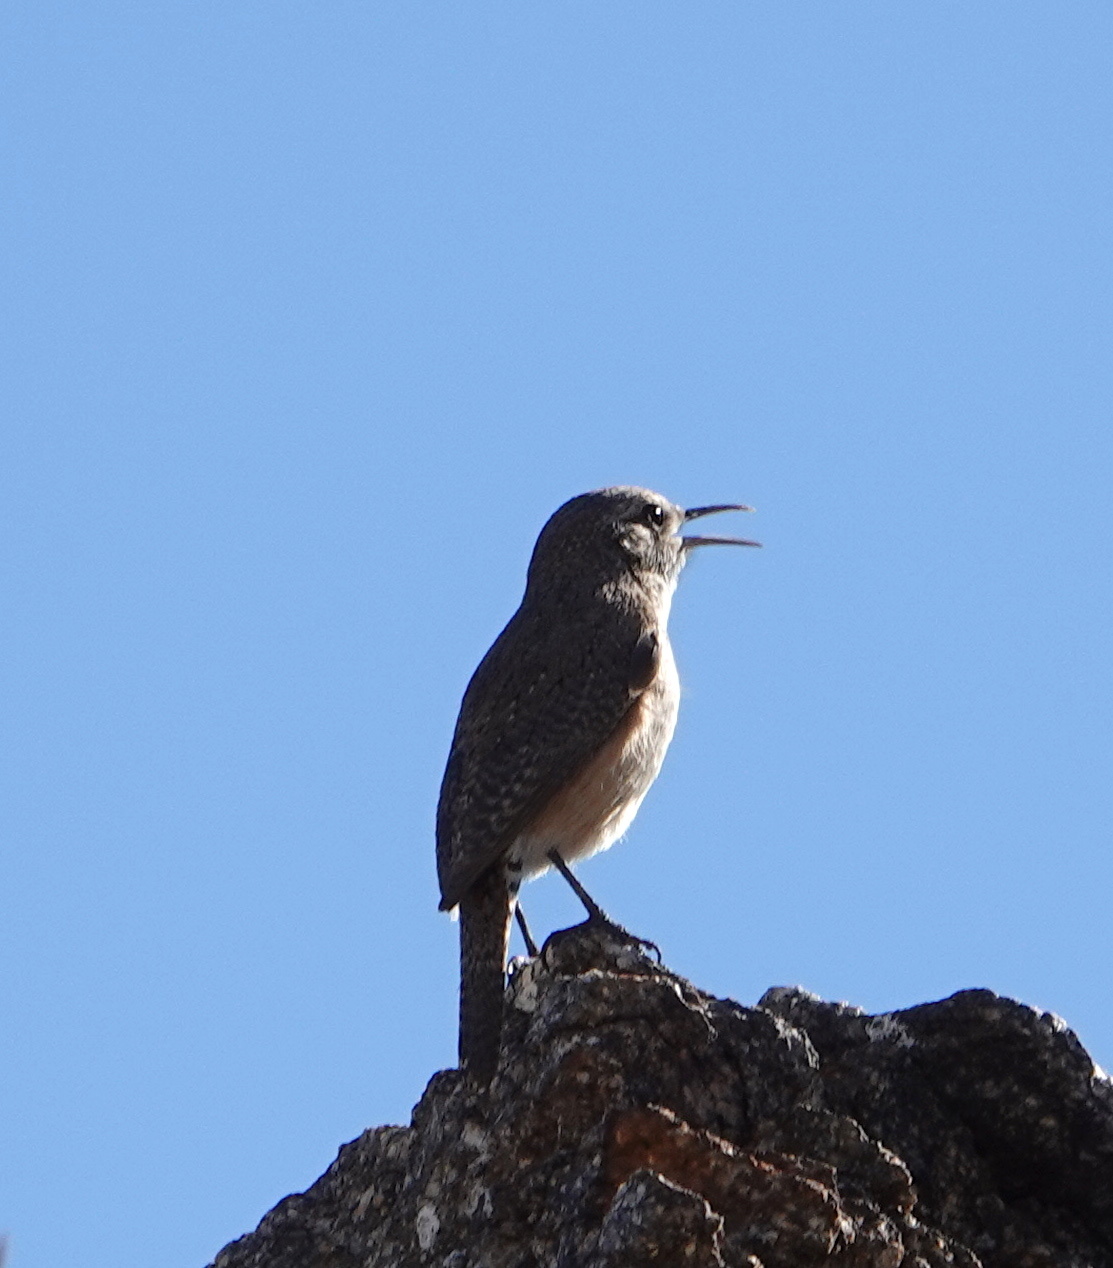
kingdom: Animalia
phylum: Chordata
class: Aves
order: Passeriformes
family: Troglodytidae
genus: Salpinctes
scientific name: Salpinctes obsoletus
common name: Rock wren
